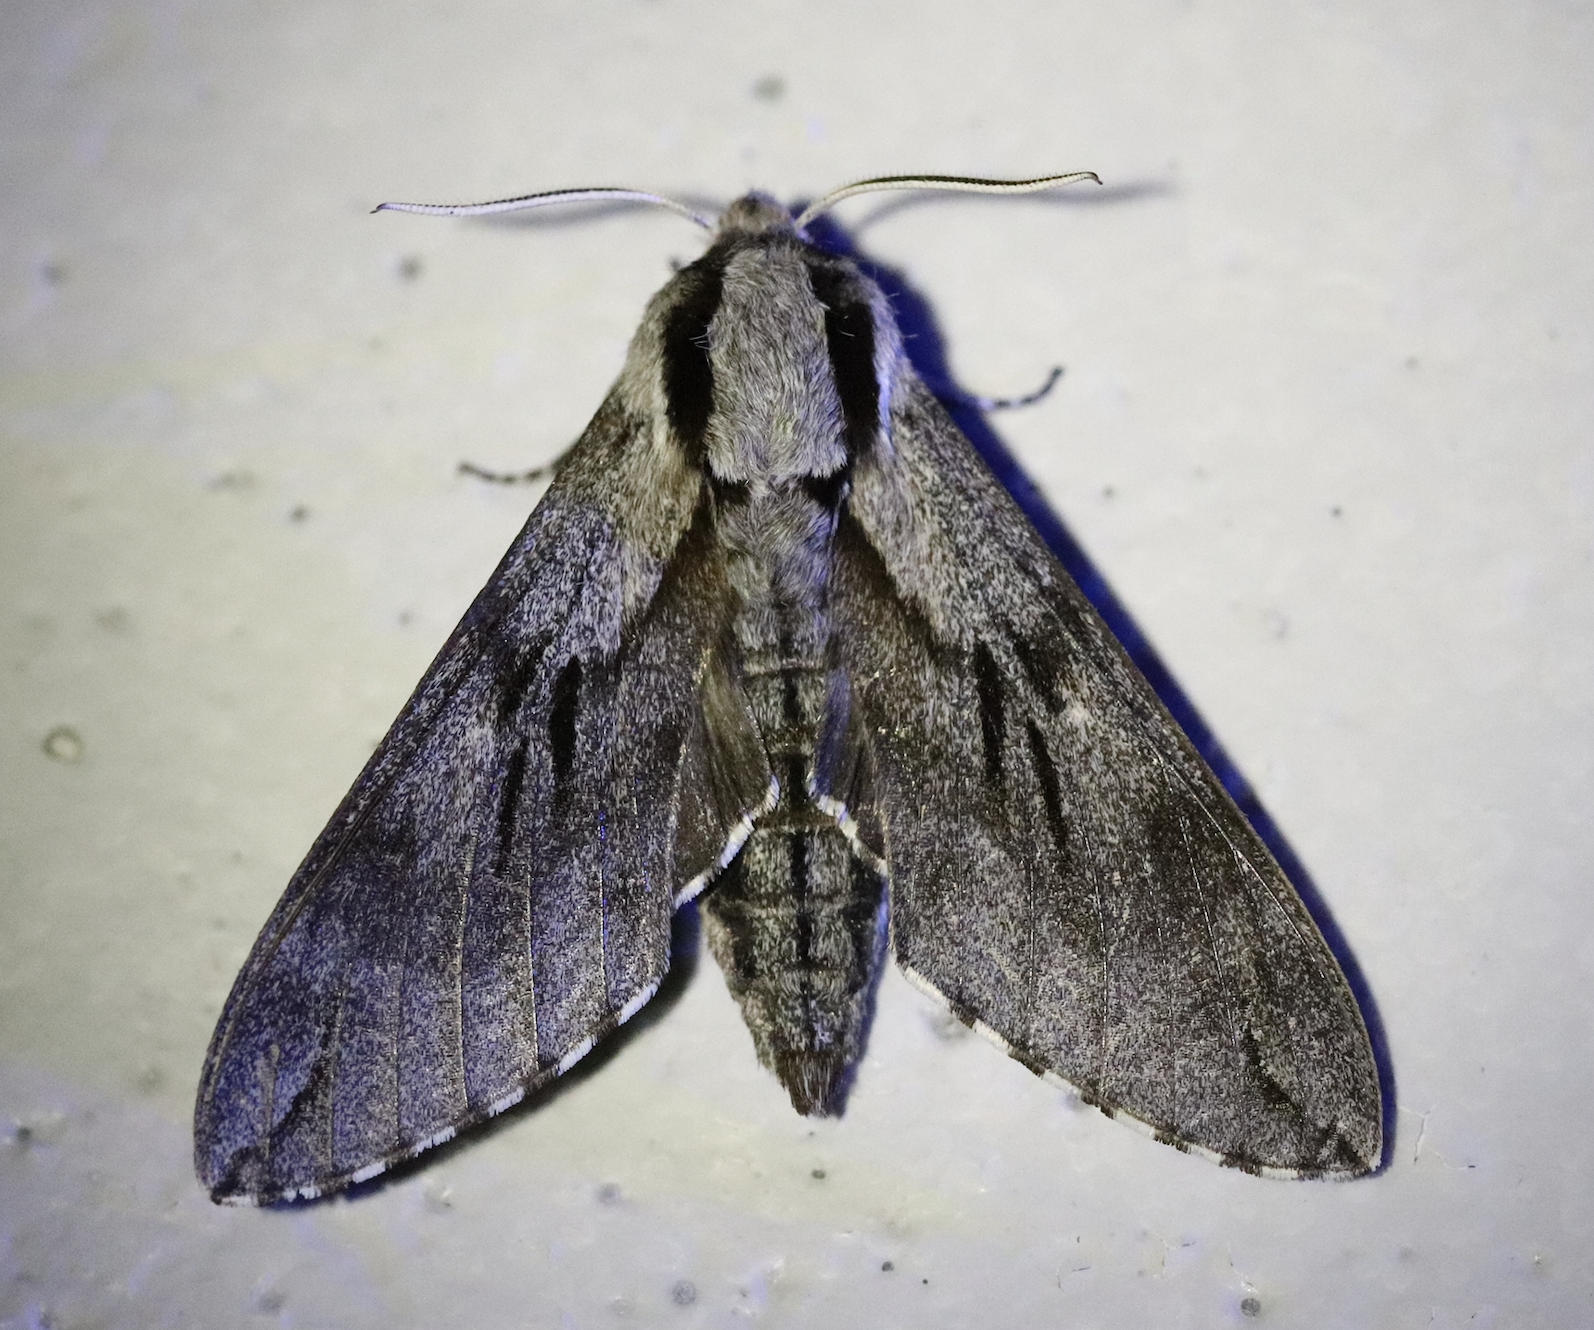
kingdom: Animalia
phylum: Arthropoda
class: Insecta
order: Lepidoptera
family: Sphingidae
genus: Sphinx
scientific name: Sphinx pinastri
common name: Pine hawk-moth
